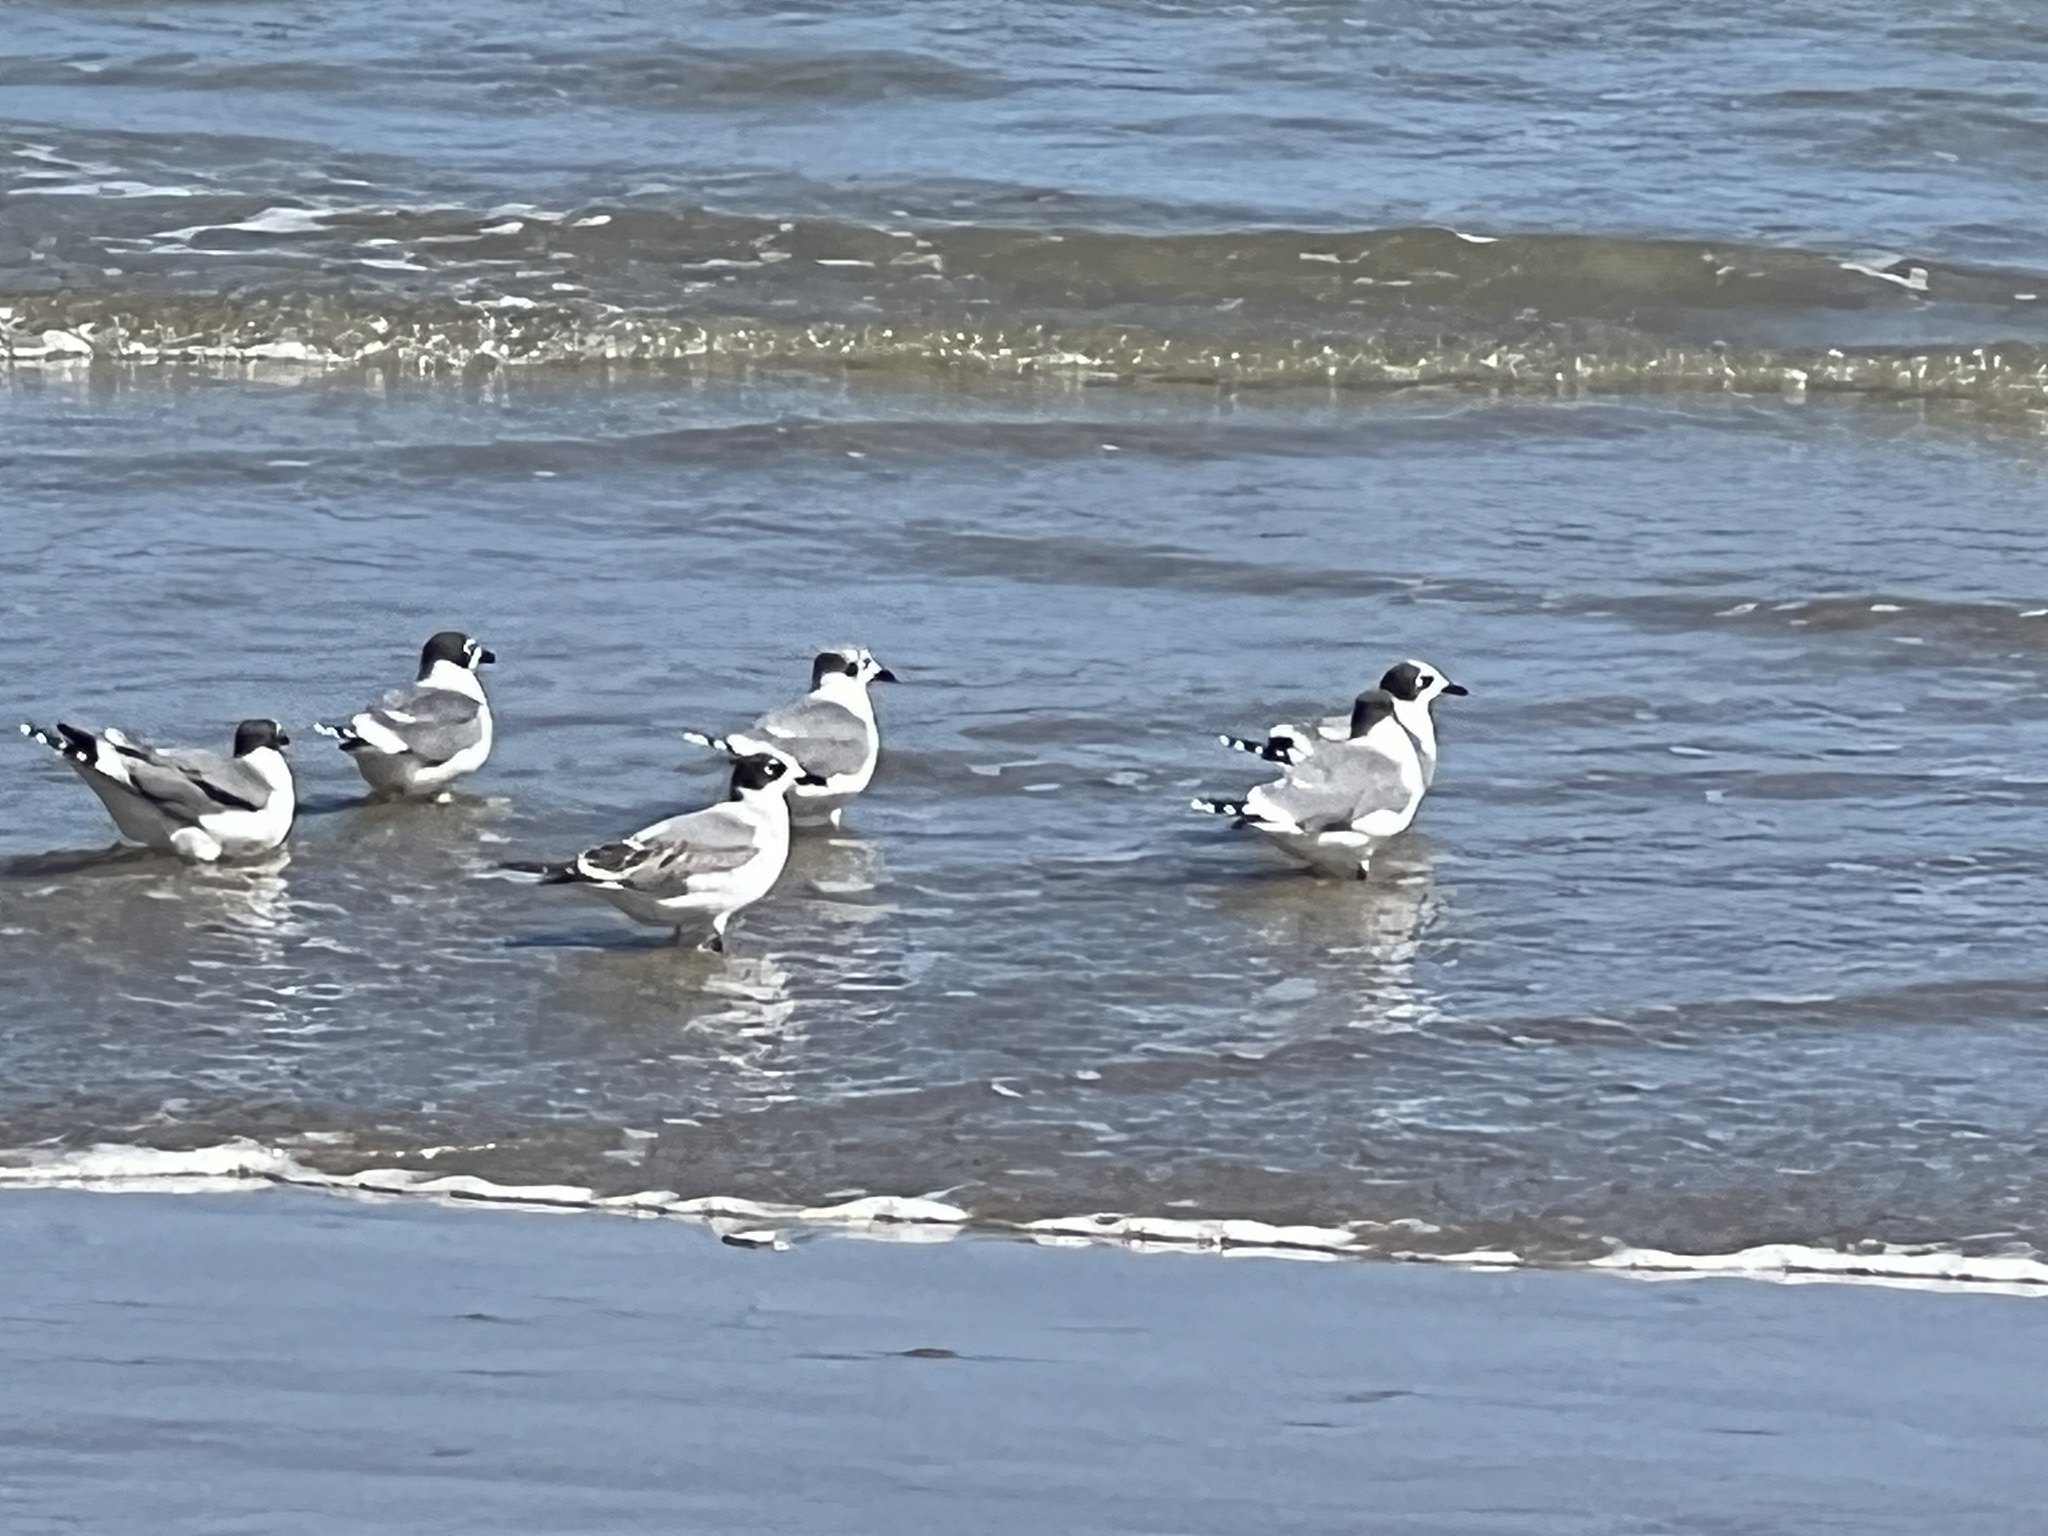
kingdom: Animalia
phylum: Chordata
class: Aves
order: Charadriiformes
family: Laridae
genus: Leucophaeus
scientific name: Leucophaeus pipixcan
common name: Franklin's gull
